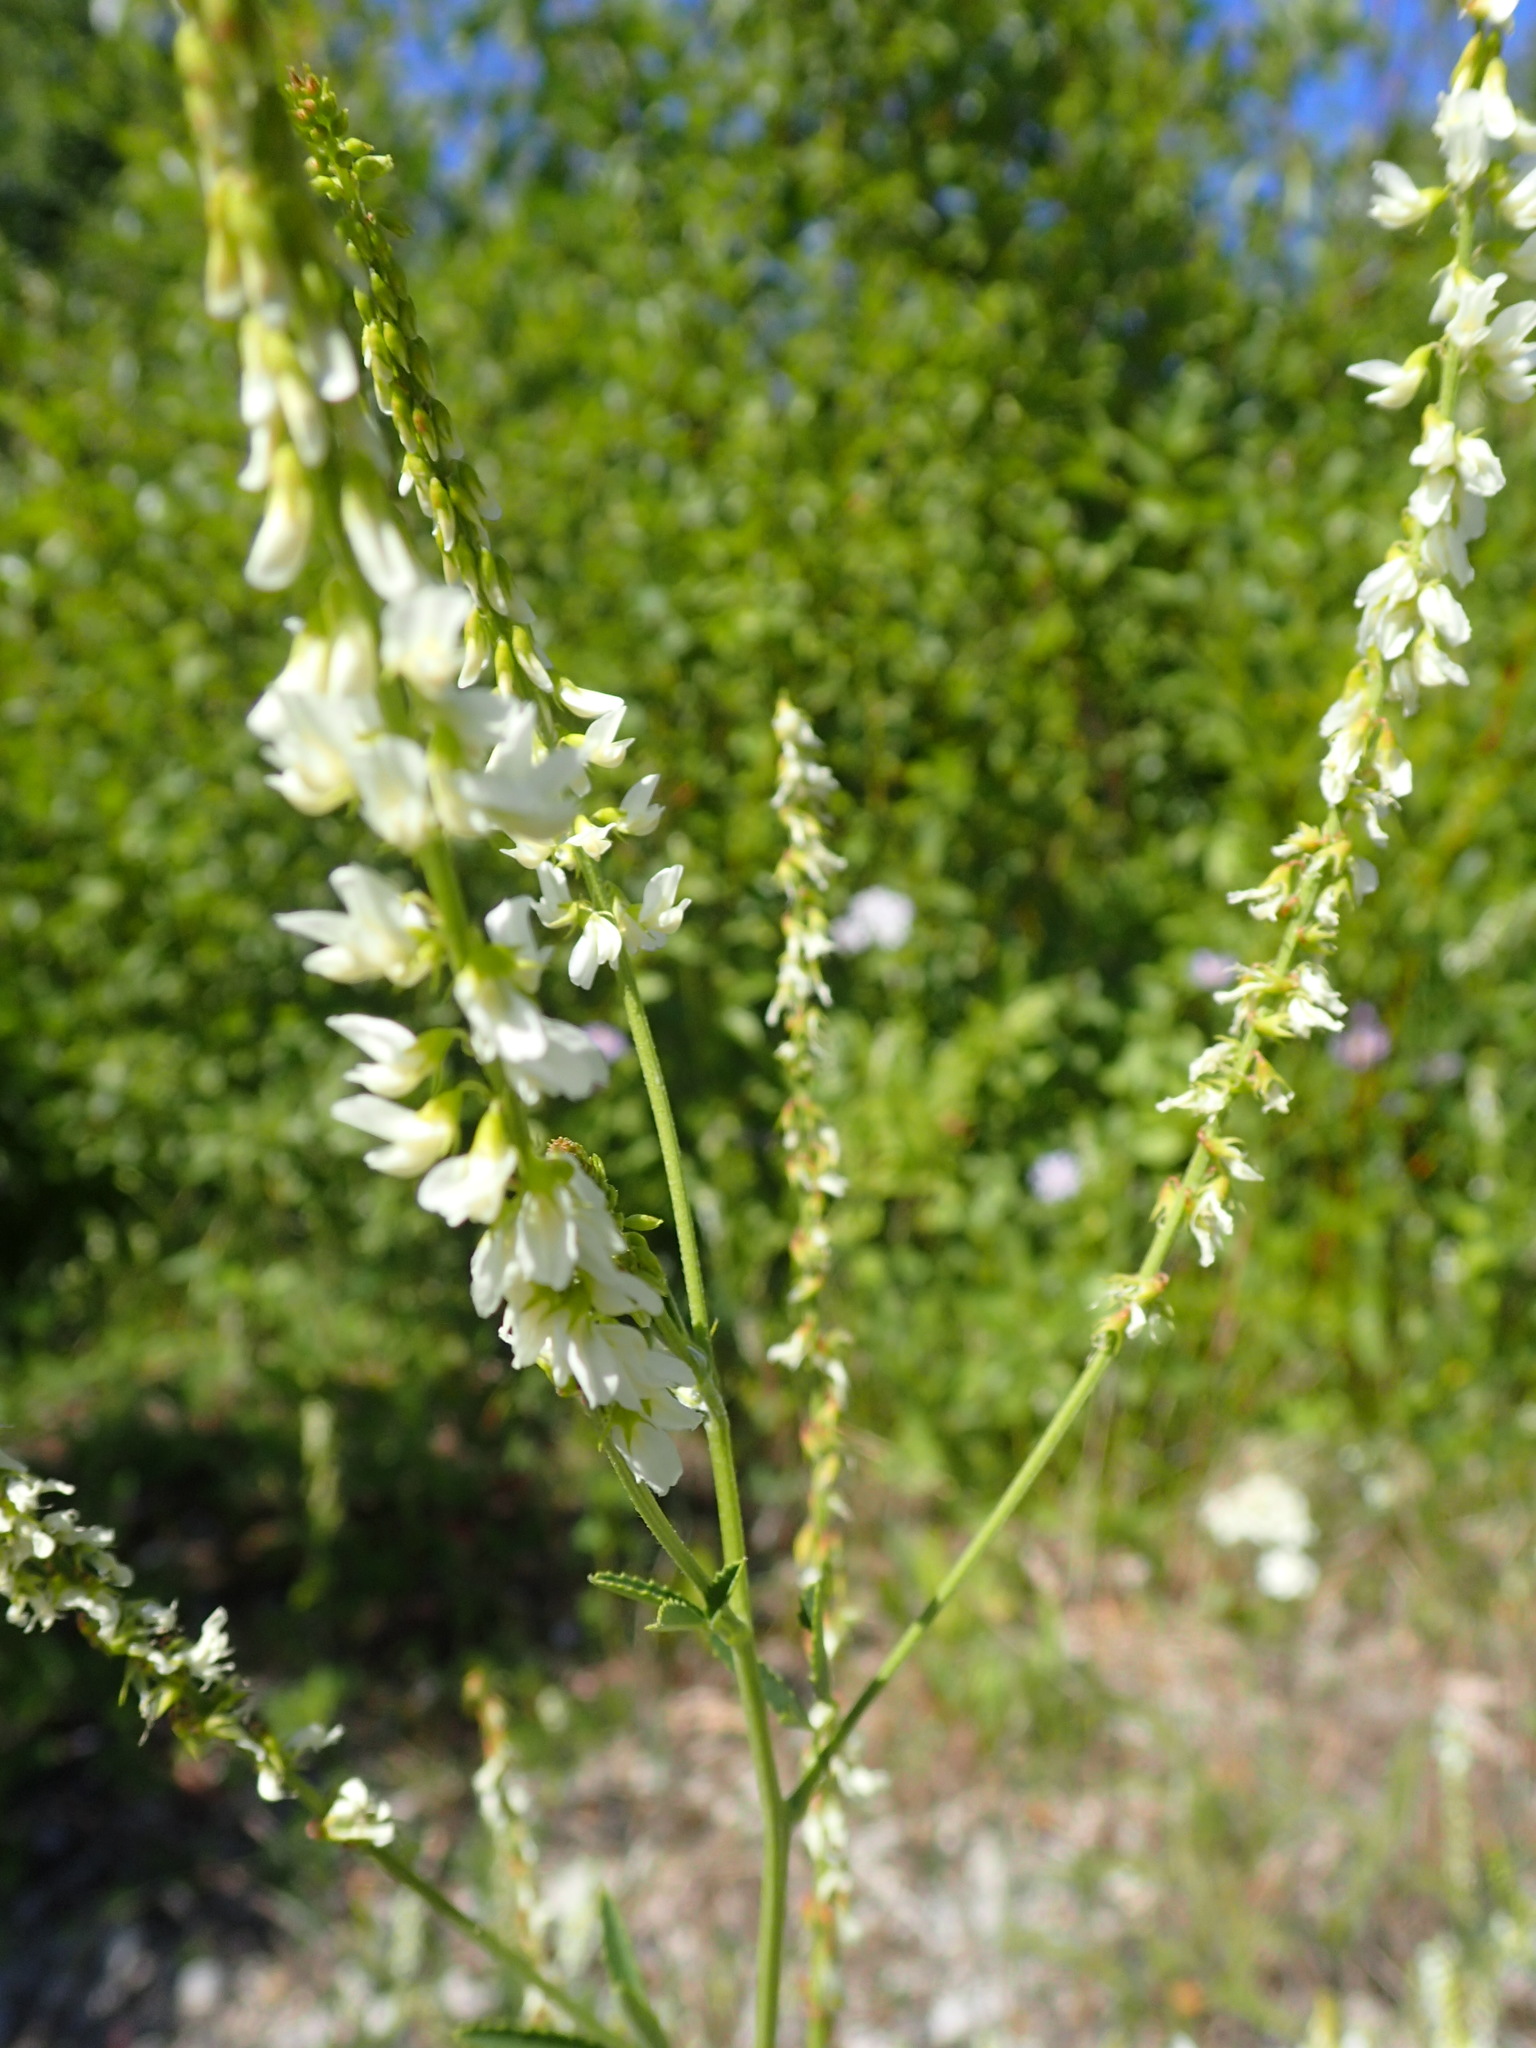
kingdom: Plantae
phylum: Tracheophyta
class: Magnoliopsida
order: Fabales
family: Fabaceae
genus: Melilotus
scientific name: Melilotus albus
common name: White melilot
